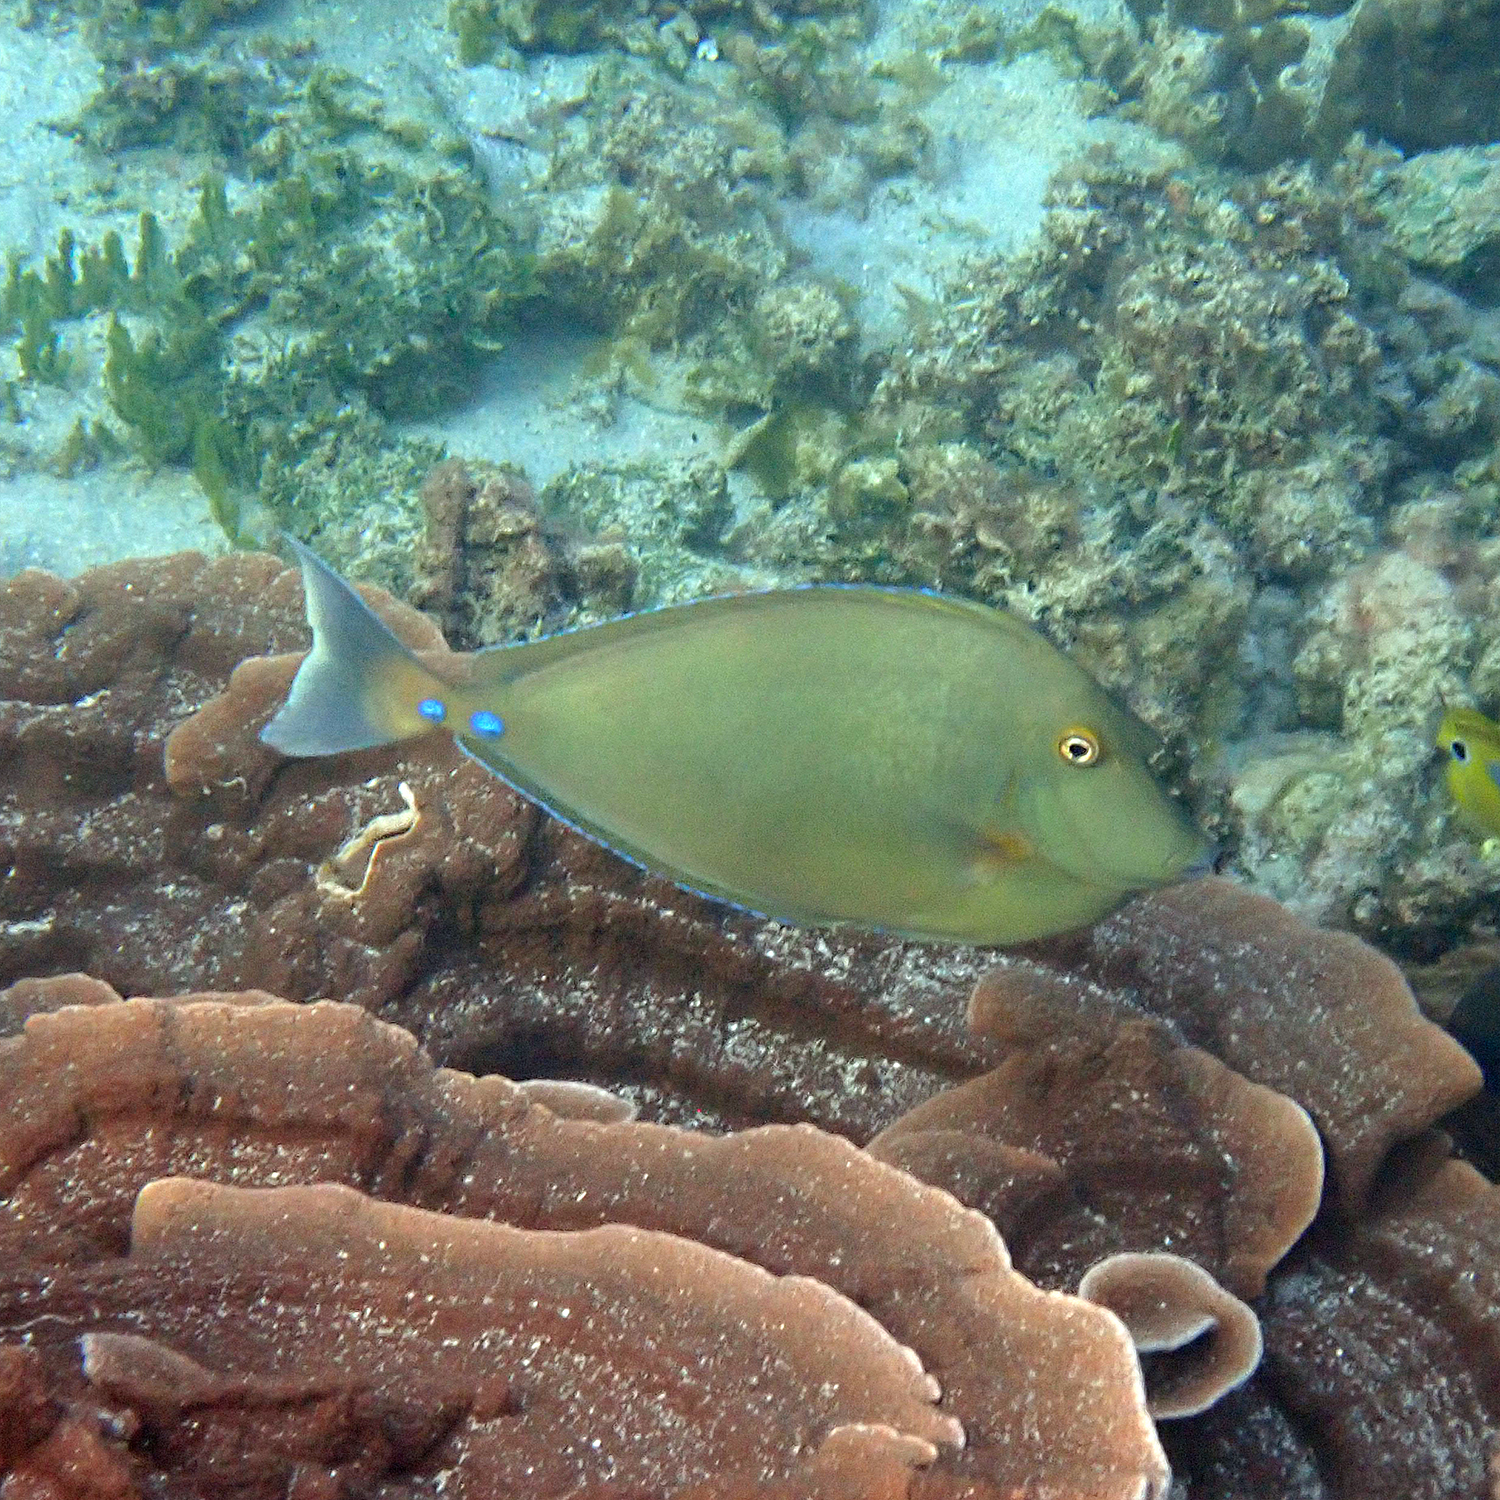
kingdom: Animalia
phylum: Chordata
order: Perciformes
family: Acanthuridae
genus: Naso
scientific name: Naso unicornis
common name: Bluespine unicornfish
